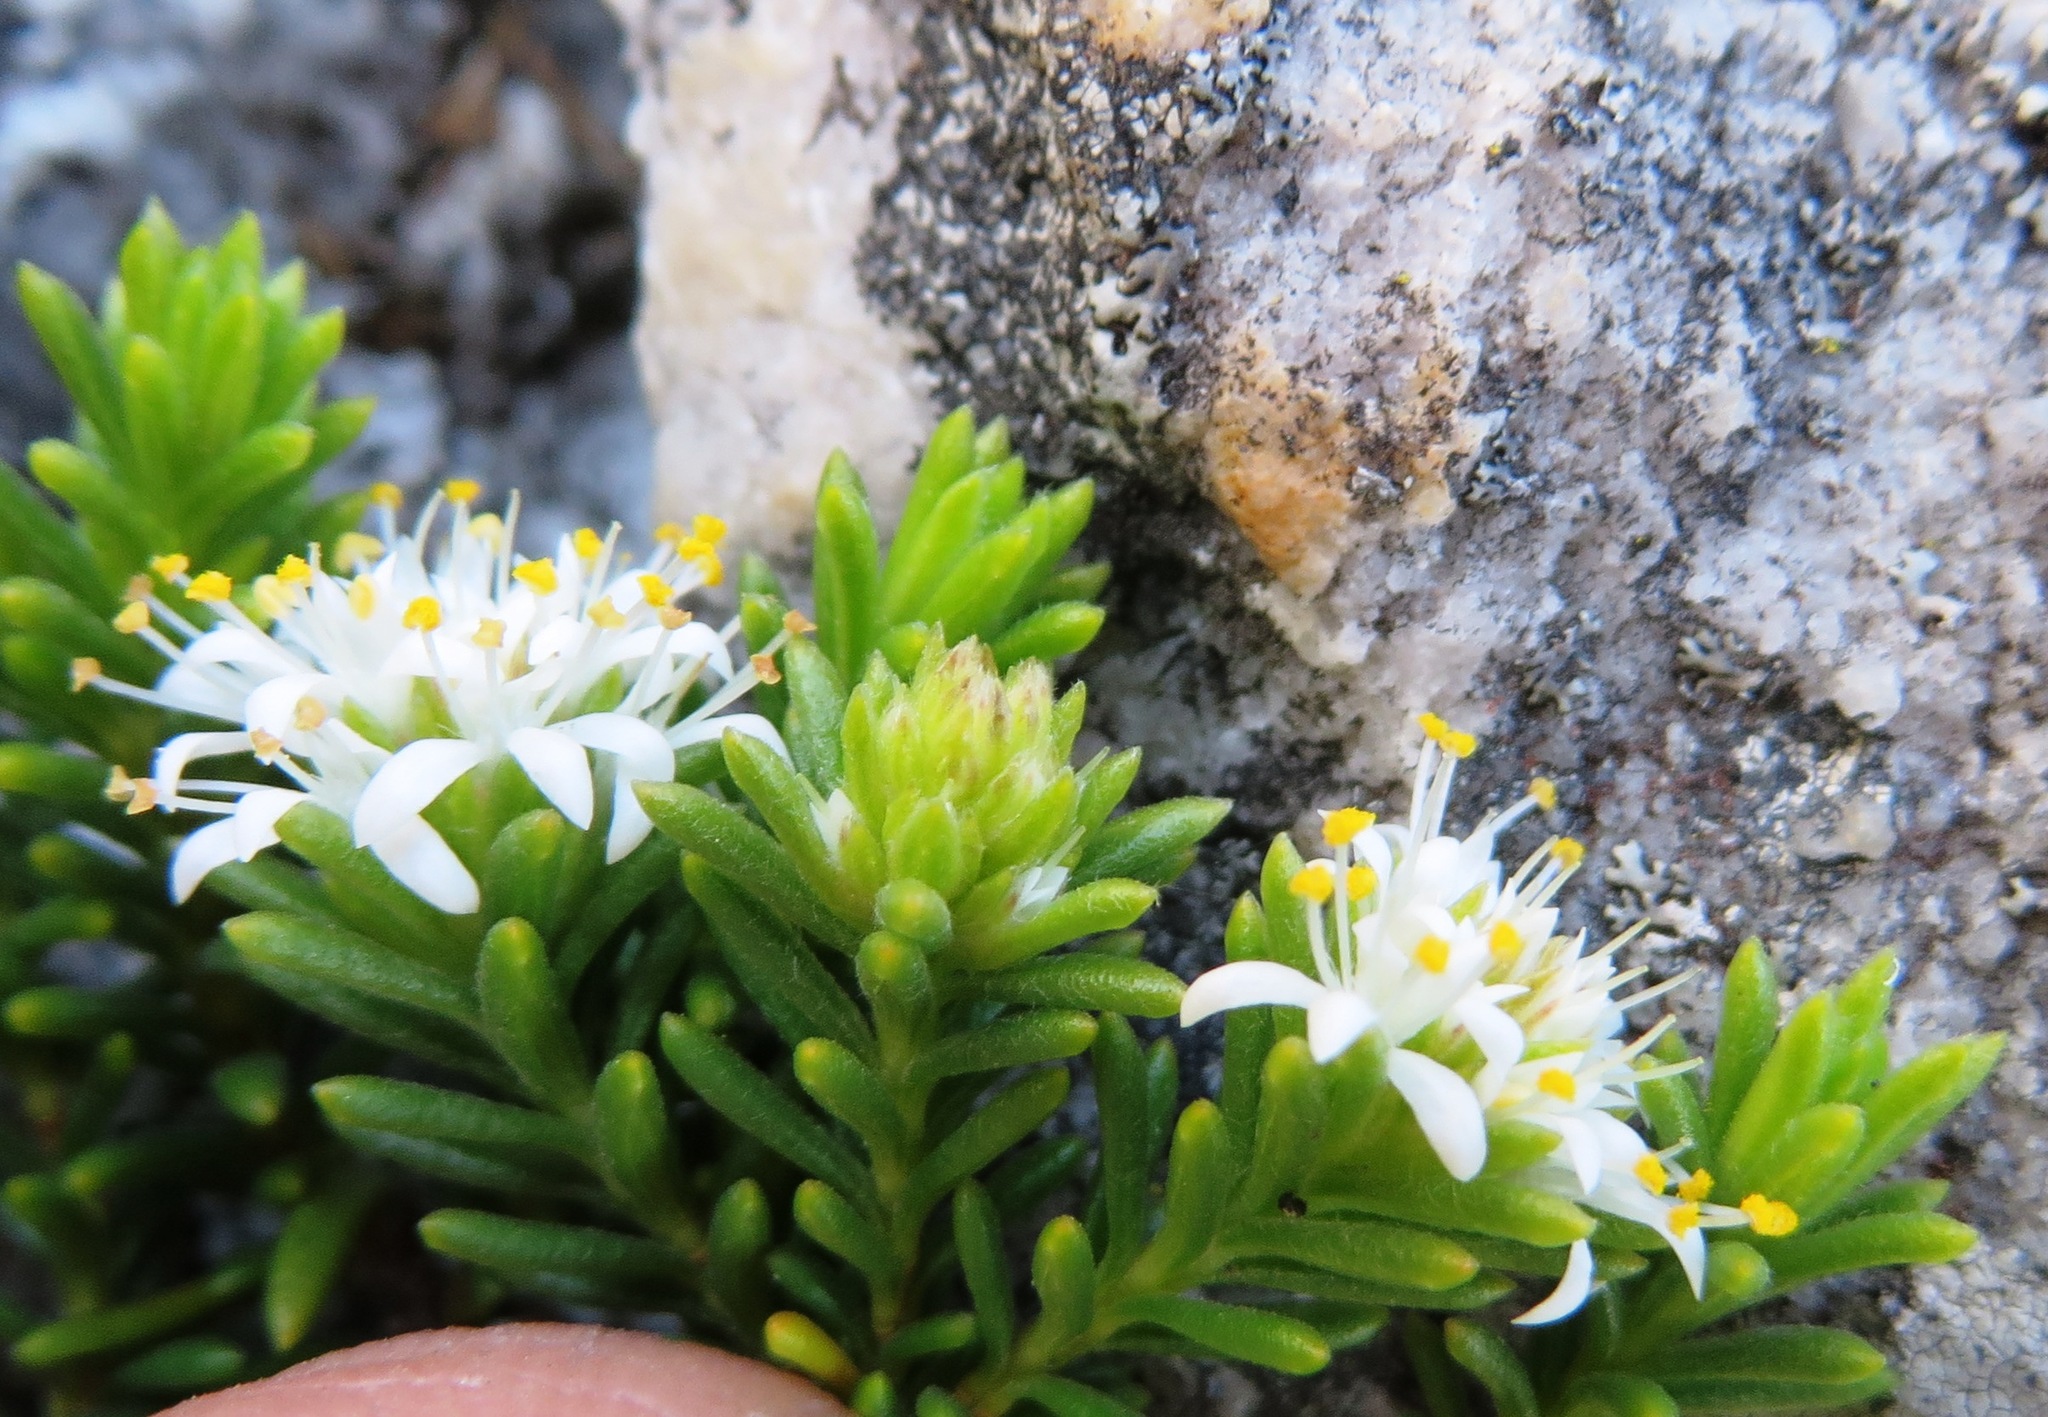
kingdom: Plantae
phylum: Tracheophyta
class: Magnoliopsida
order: Lamiales
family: Stilbaceae
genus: Stilbe
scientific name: Stilbe rupestris
